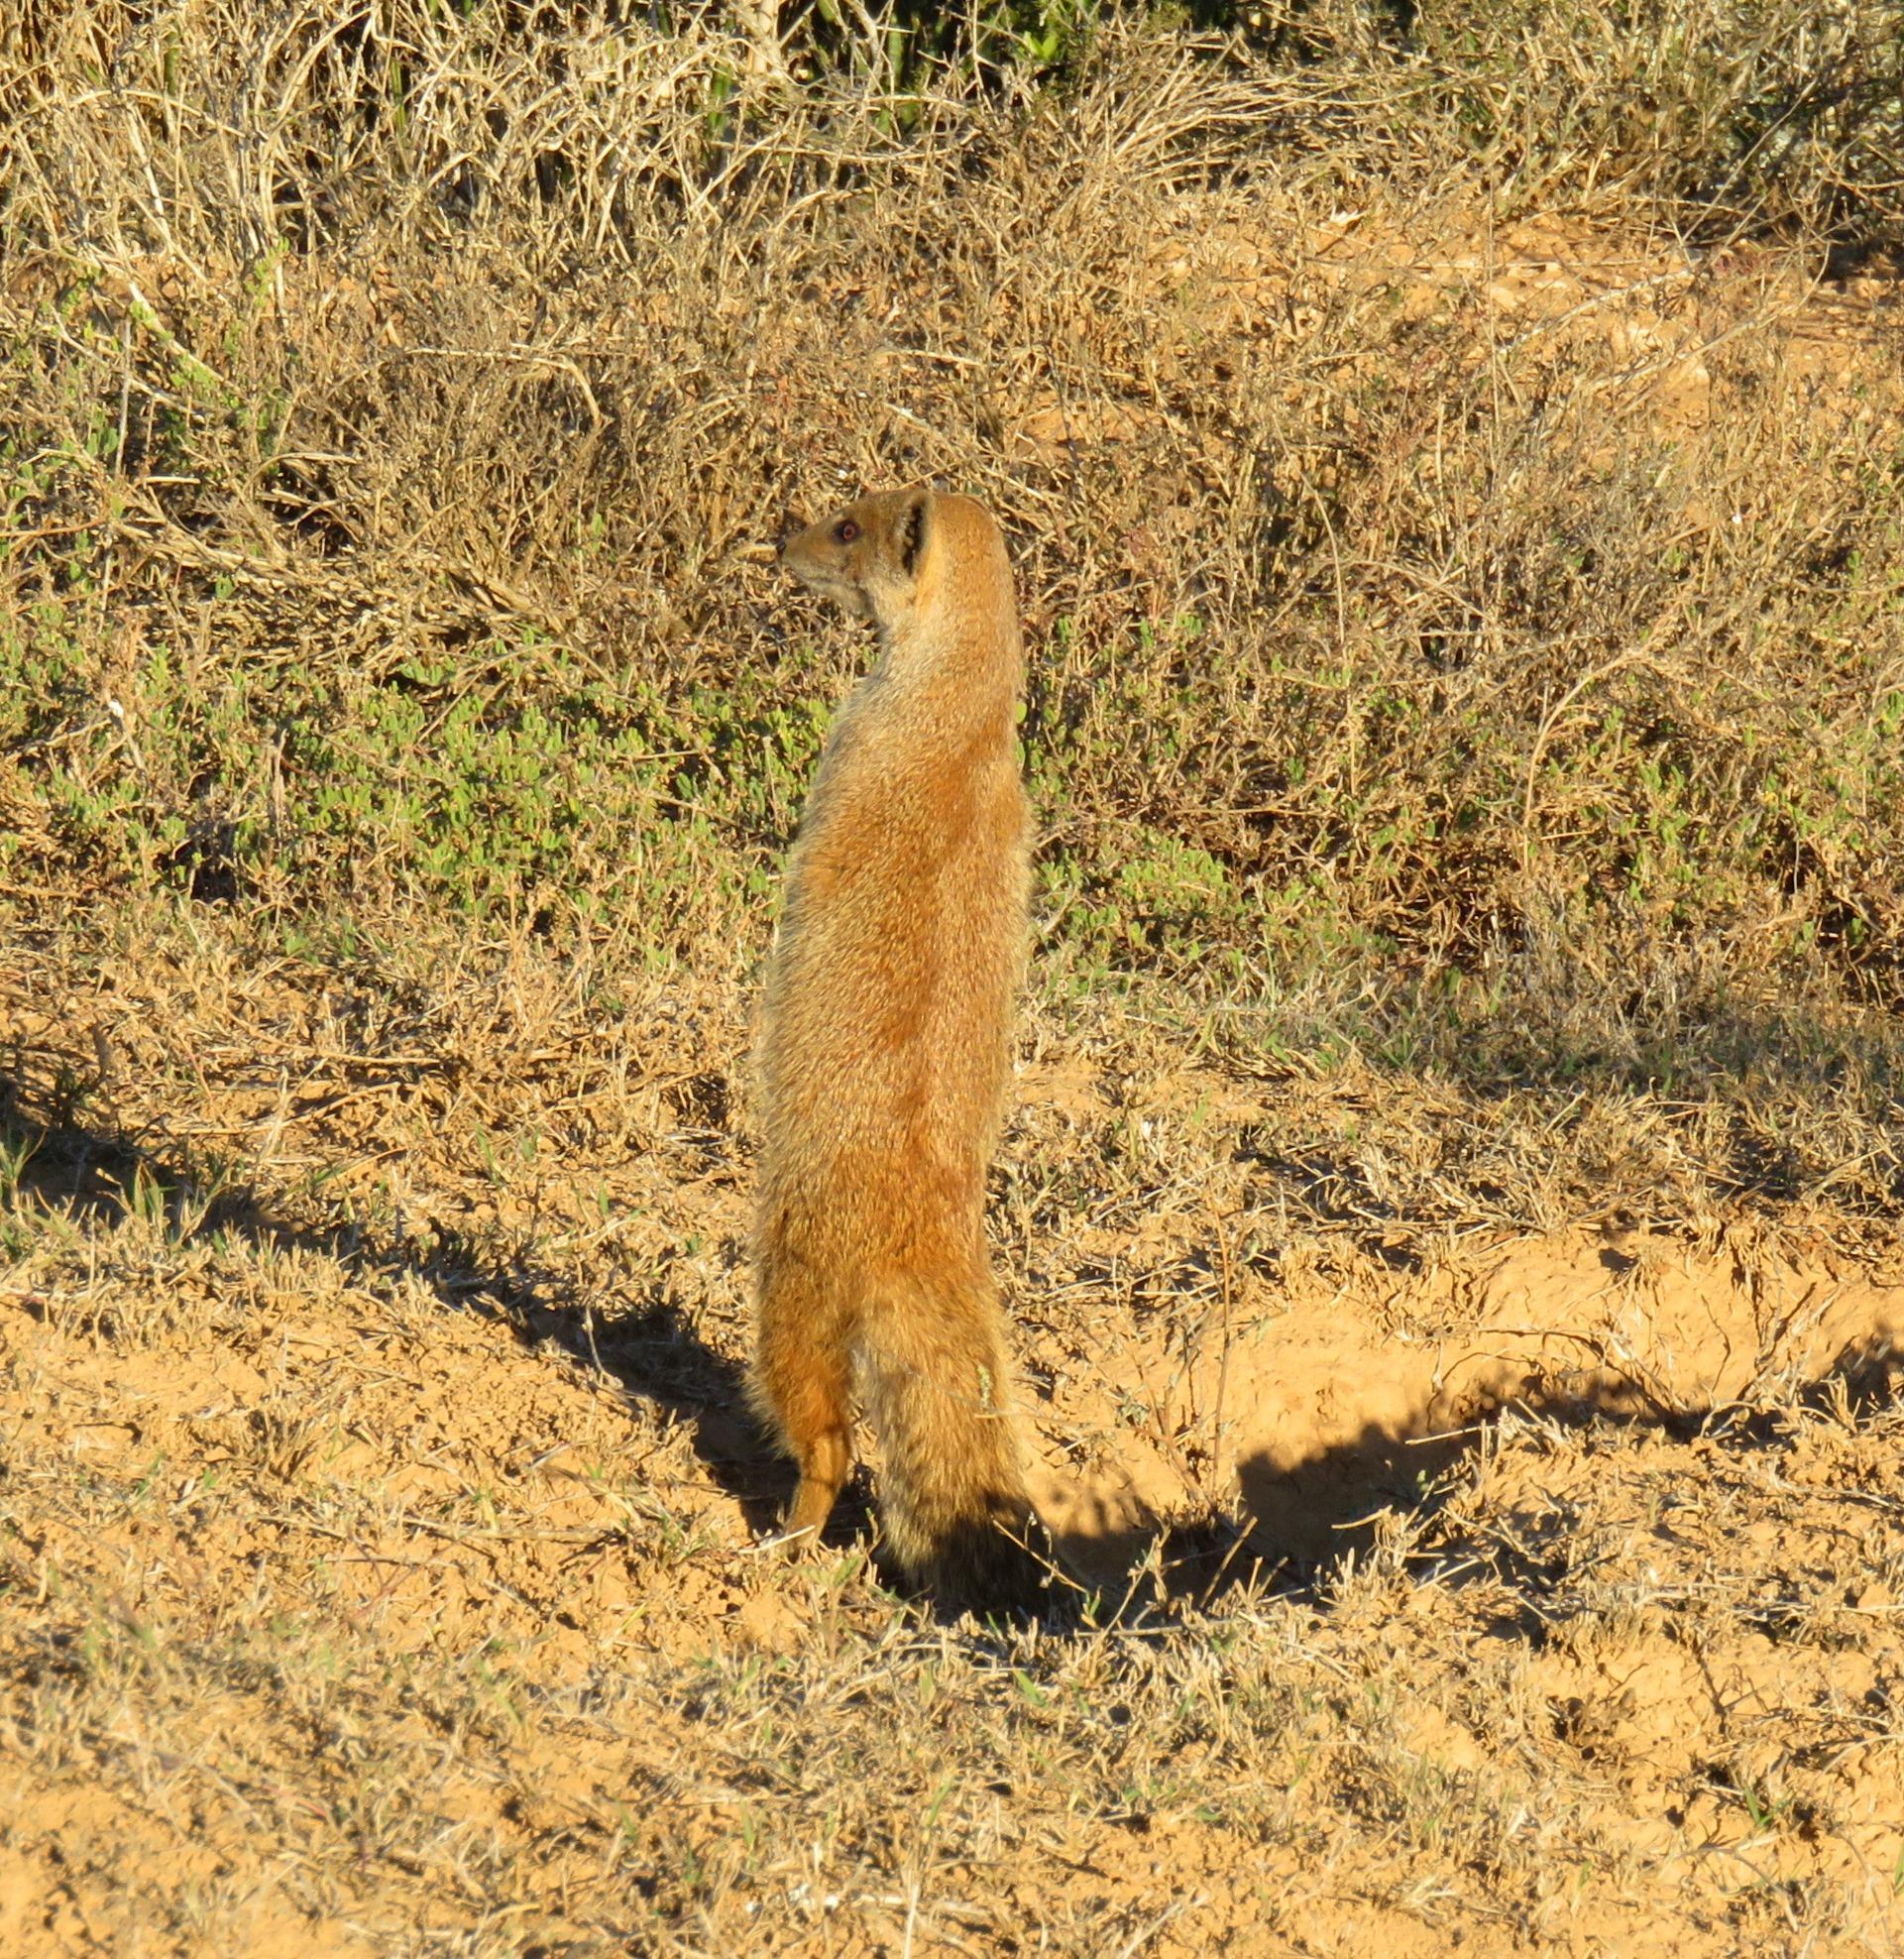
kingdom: Animalia
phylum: Chordata
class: Mammalia
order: Carnivora
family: Herpestidae
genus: Cynictis
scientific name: Cynictis penicillata
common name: Yellow mongoose
